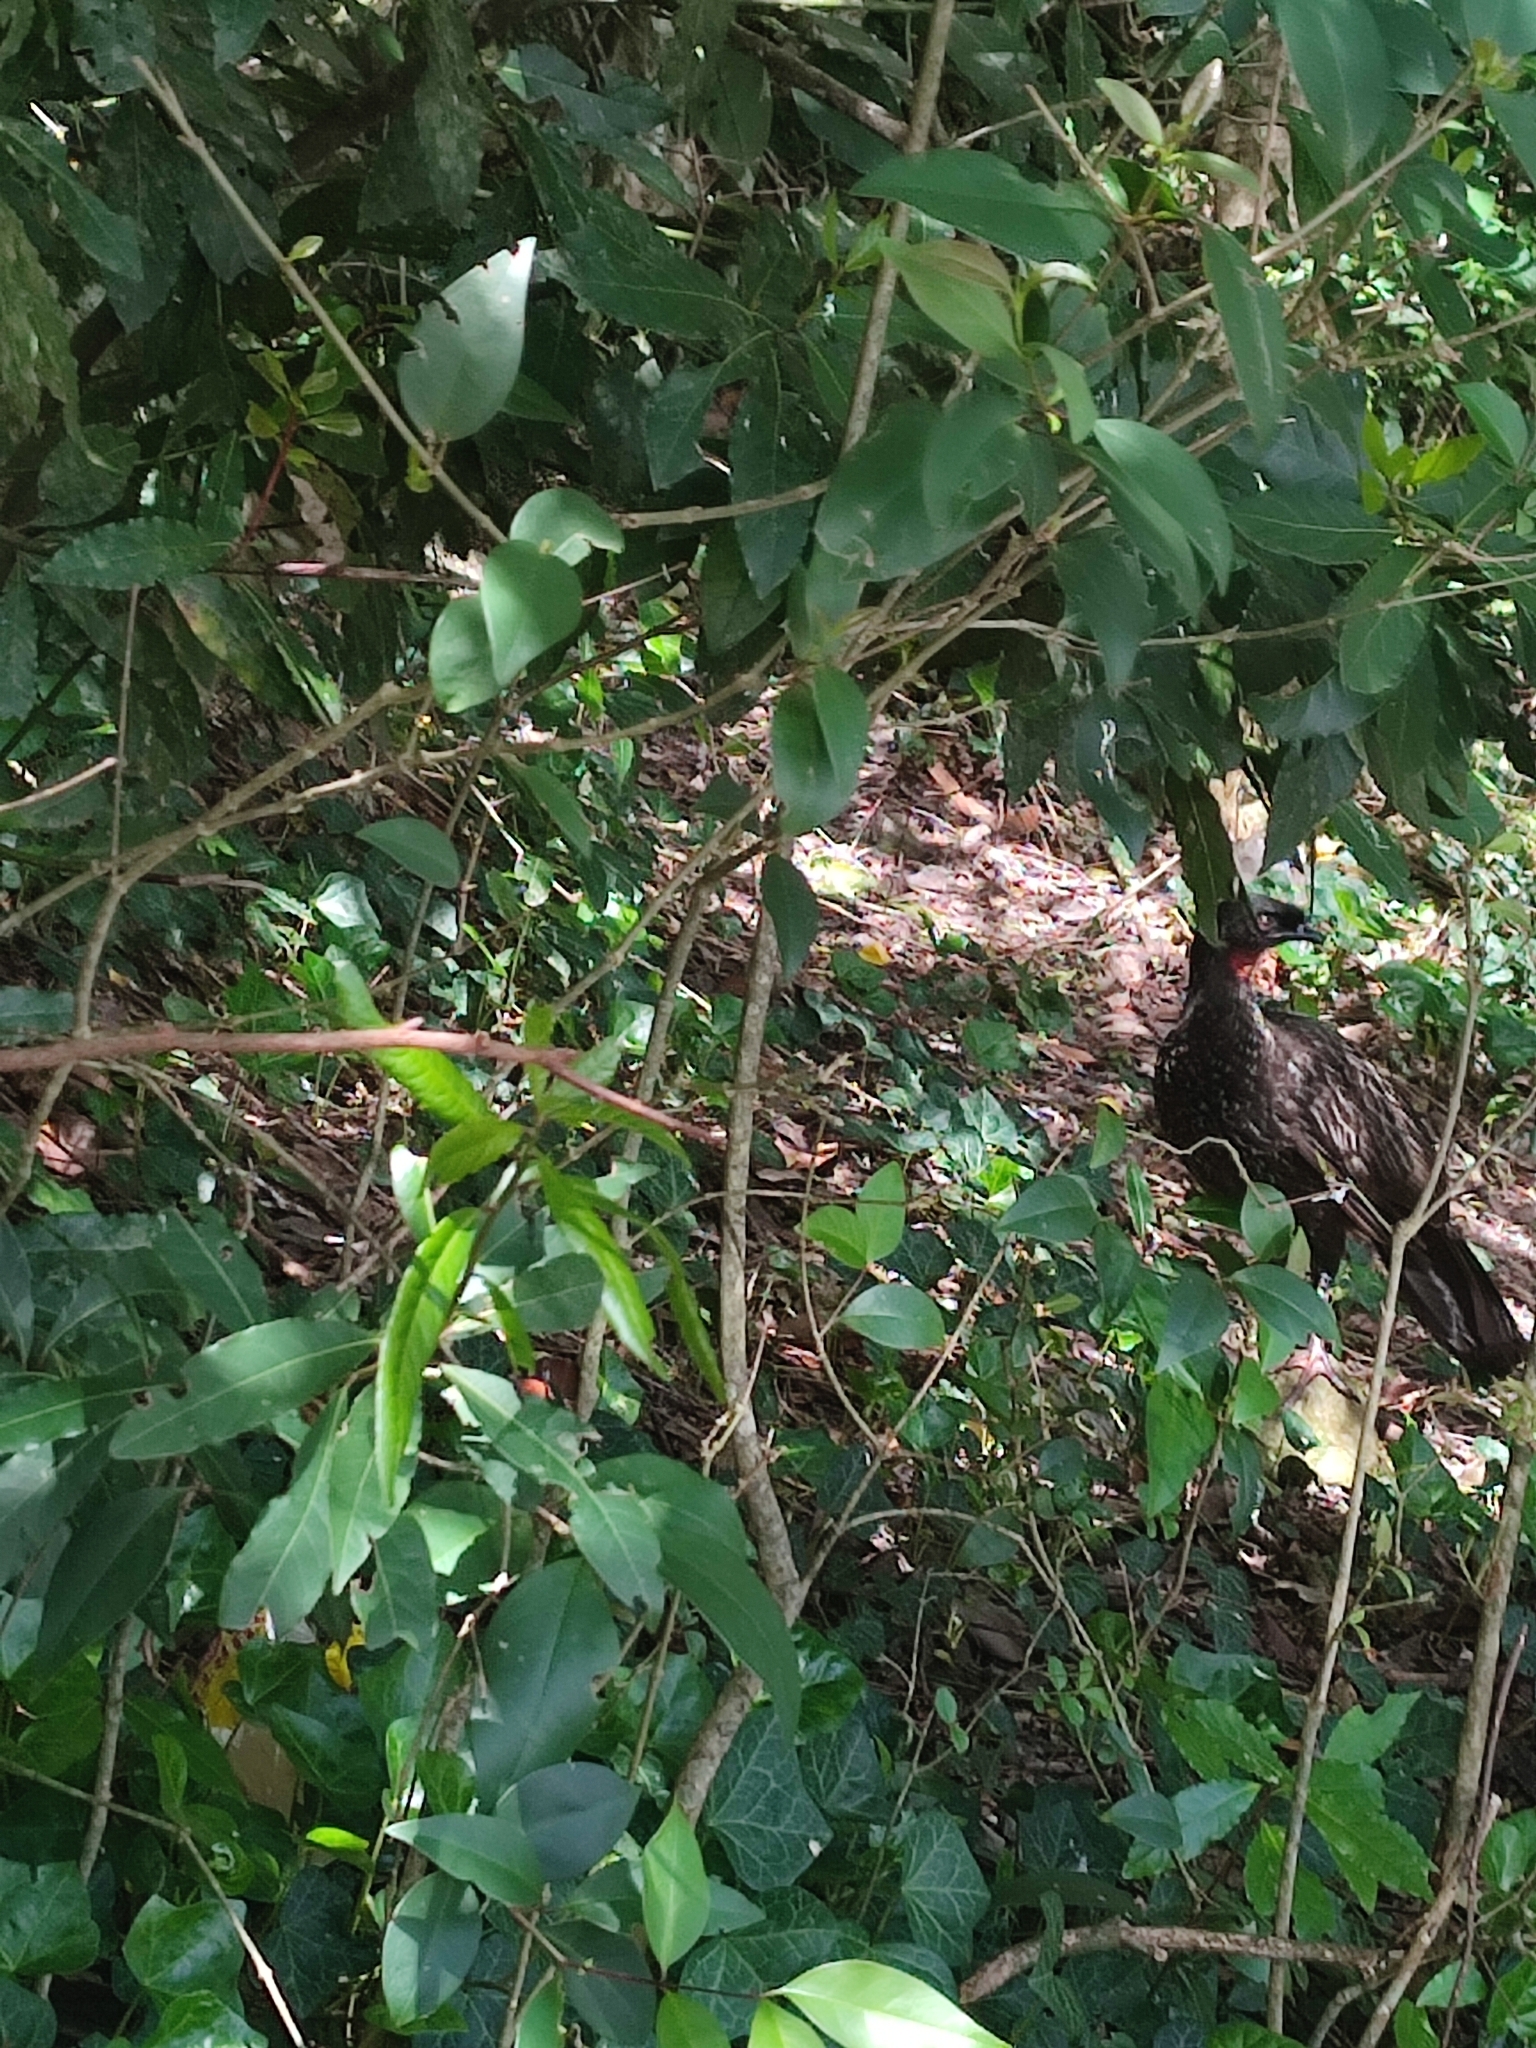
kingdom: Animalia
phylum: Chordata
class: Aves
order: Galliformes
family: Cracidae
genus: Penelope
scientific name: Penelope obscura
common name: Dusky-legged guan
